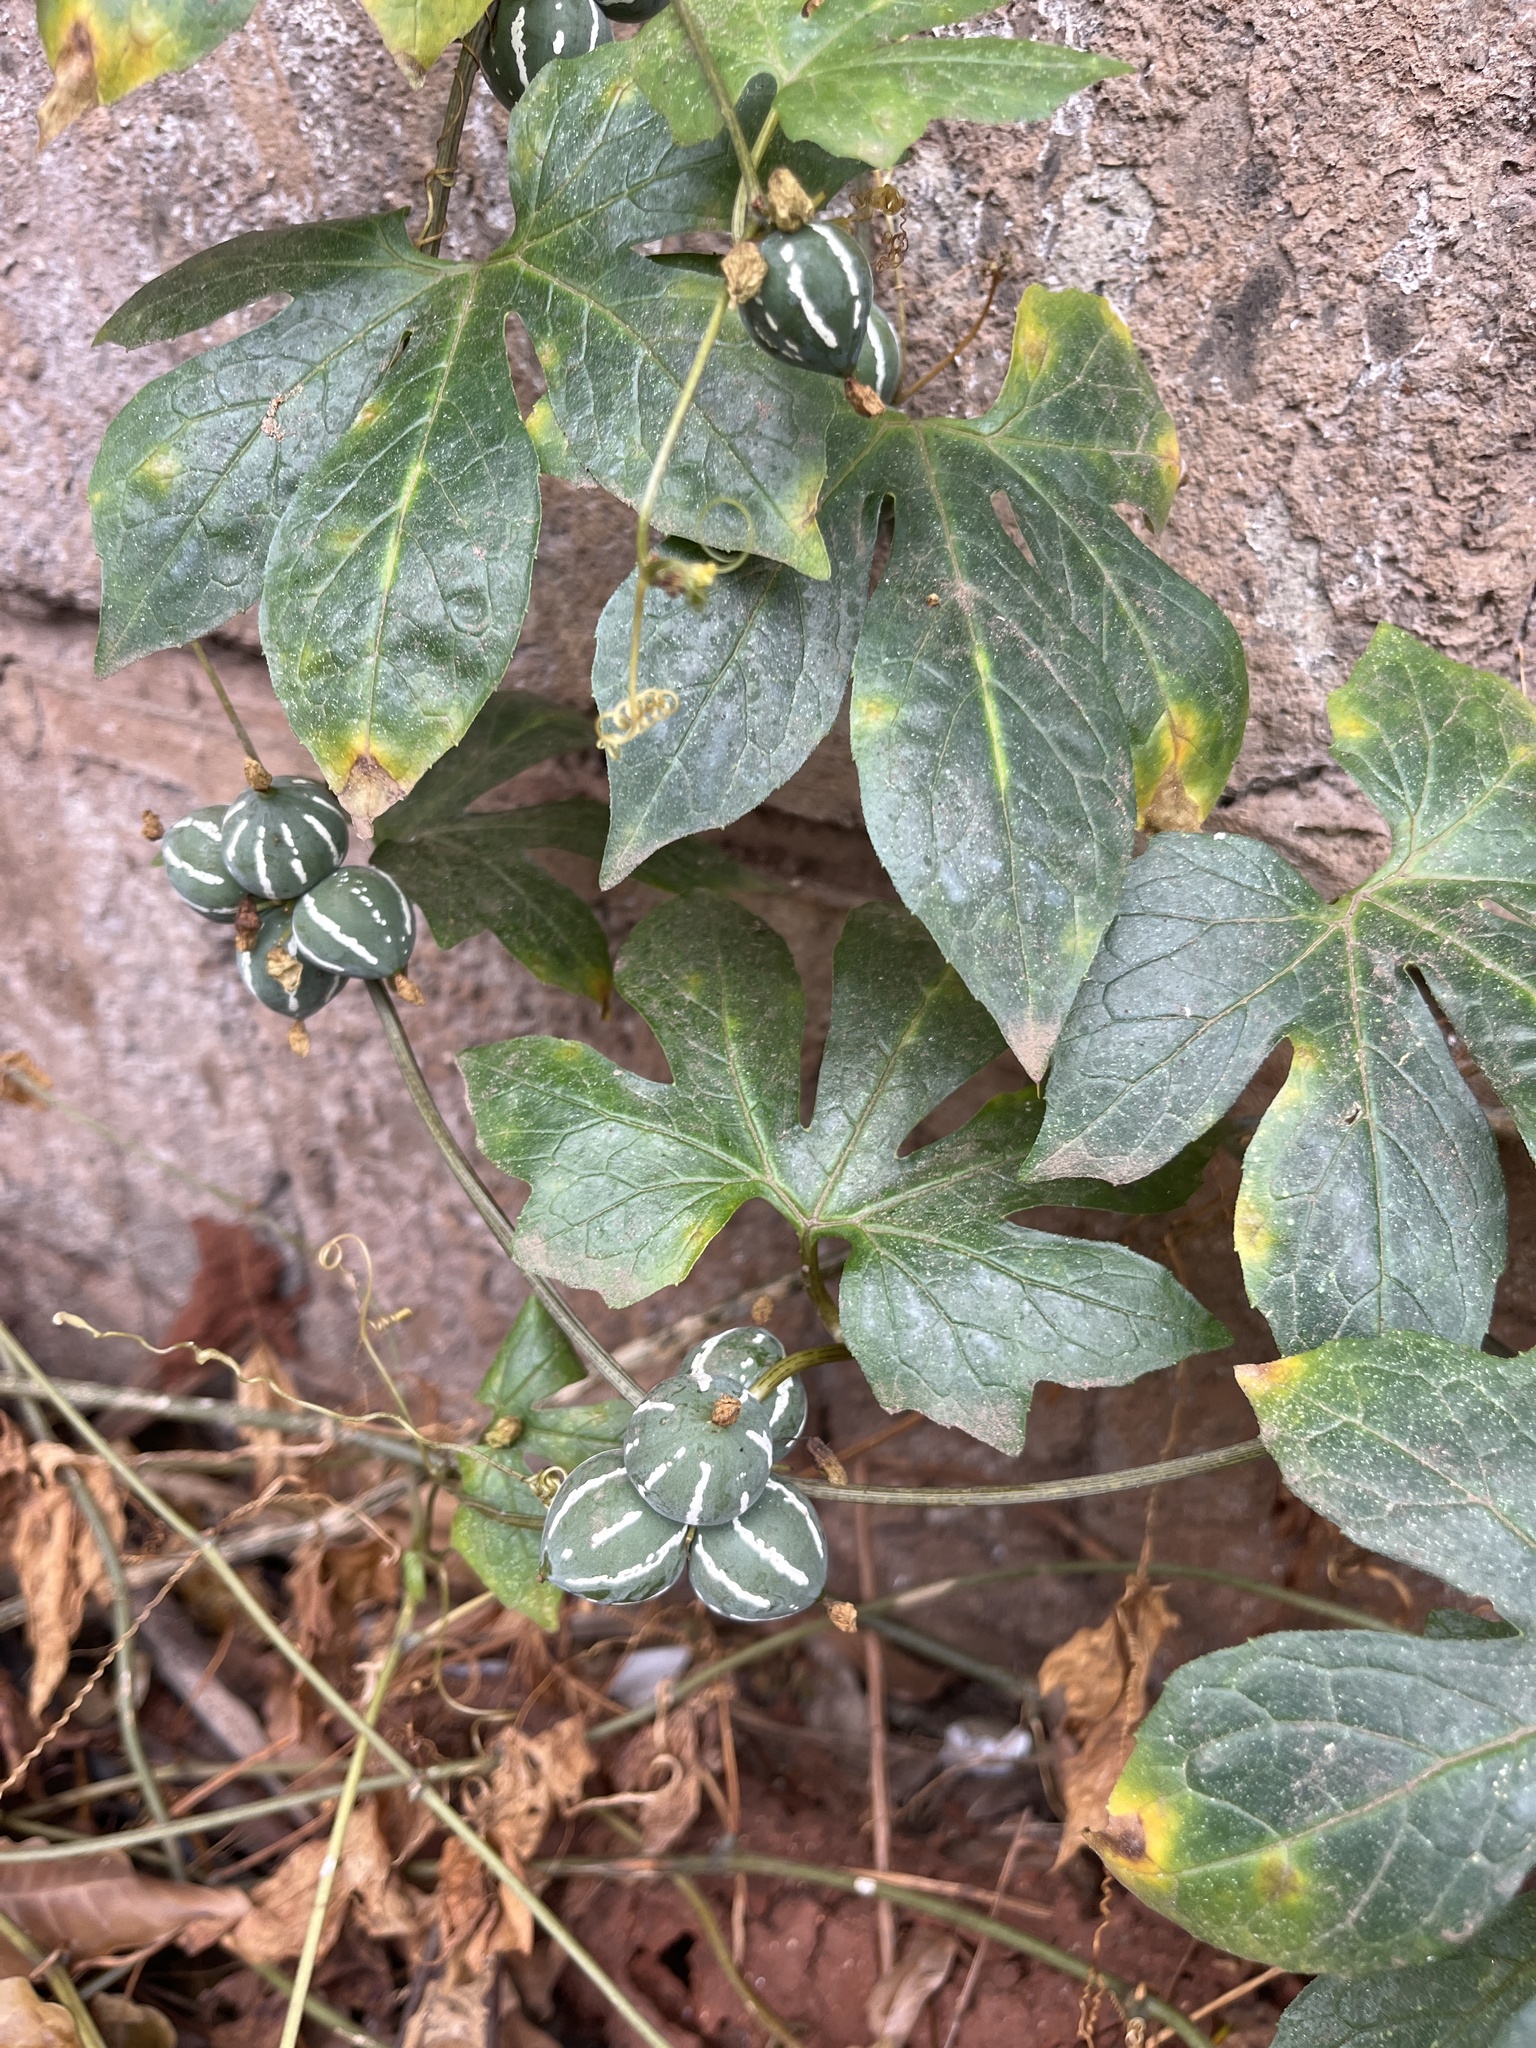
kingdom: Plantae
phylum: Tracheophyta
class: Magnoliopsida
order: Cucurbitales
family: Cucurbitaceae
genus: Diplocyclos
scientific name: Diplocyclos palmatus
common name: Striped-cucumber
